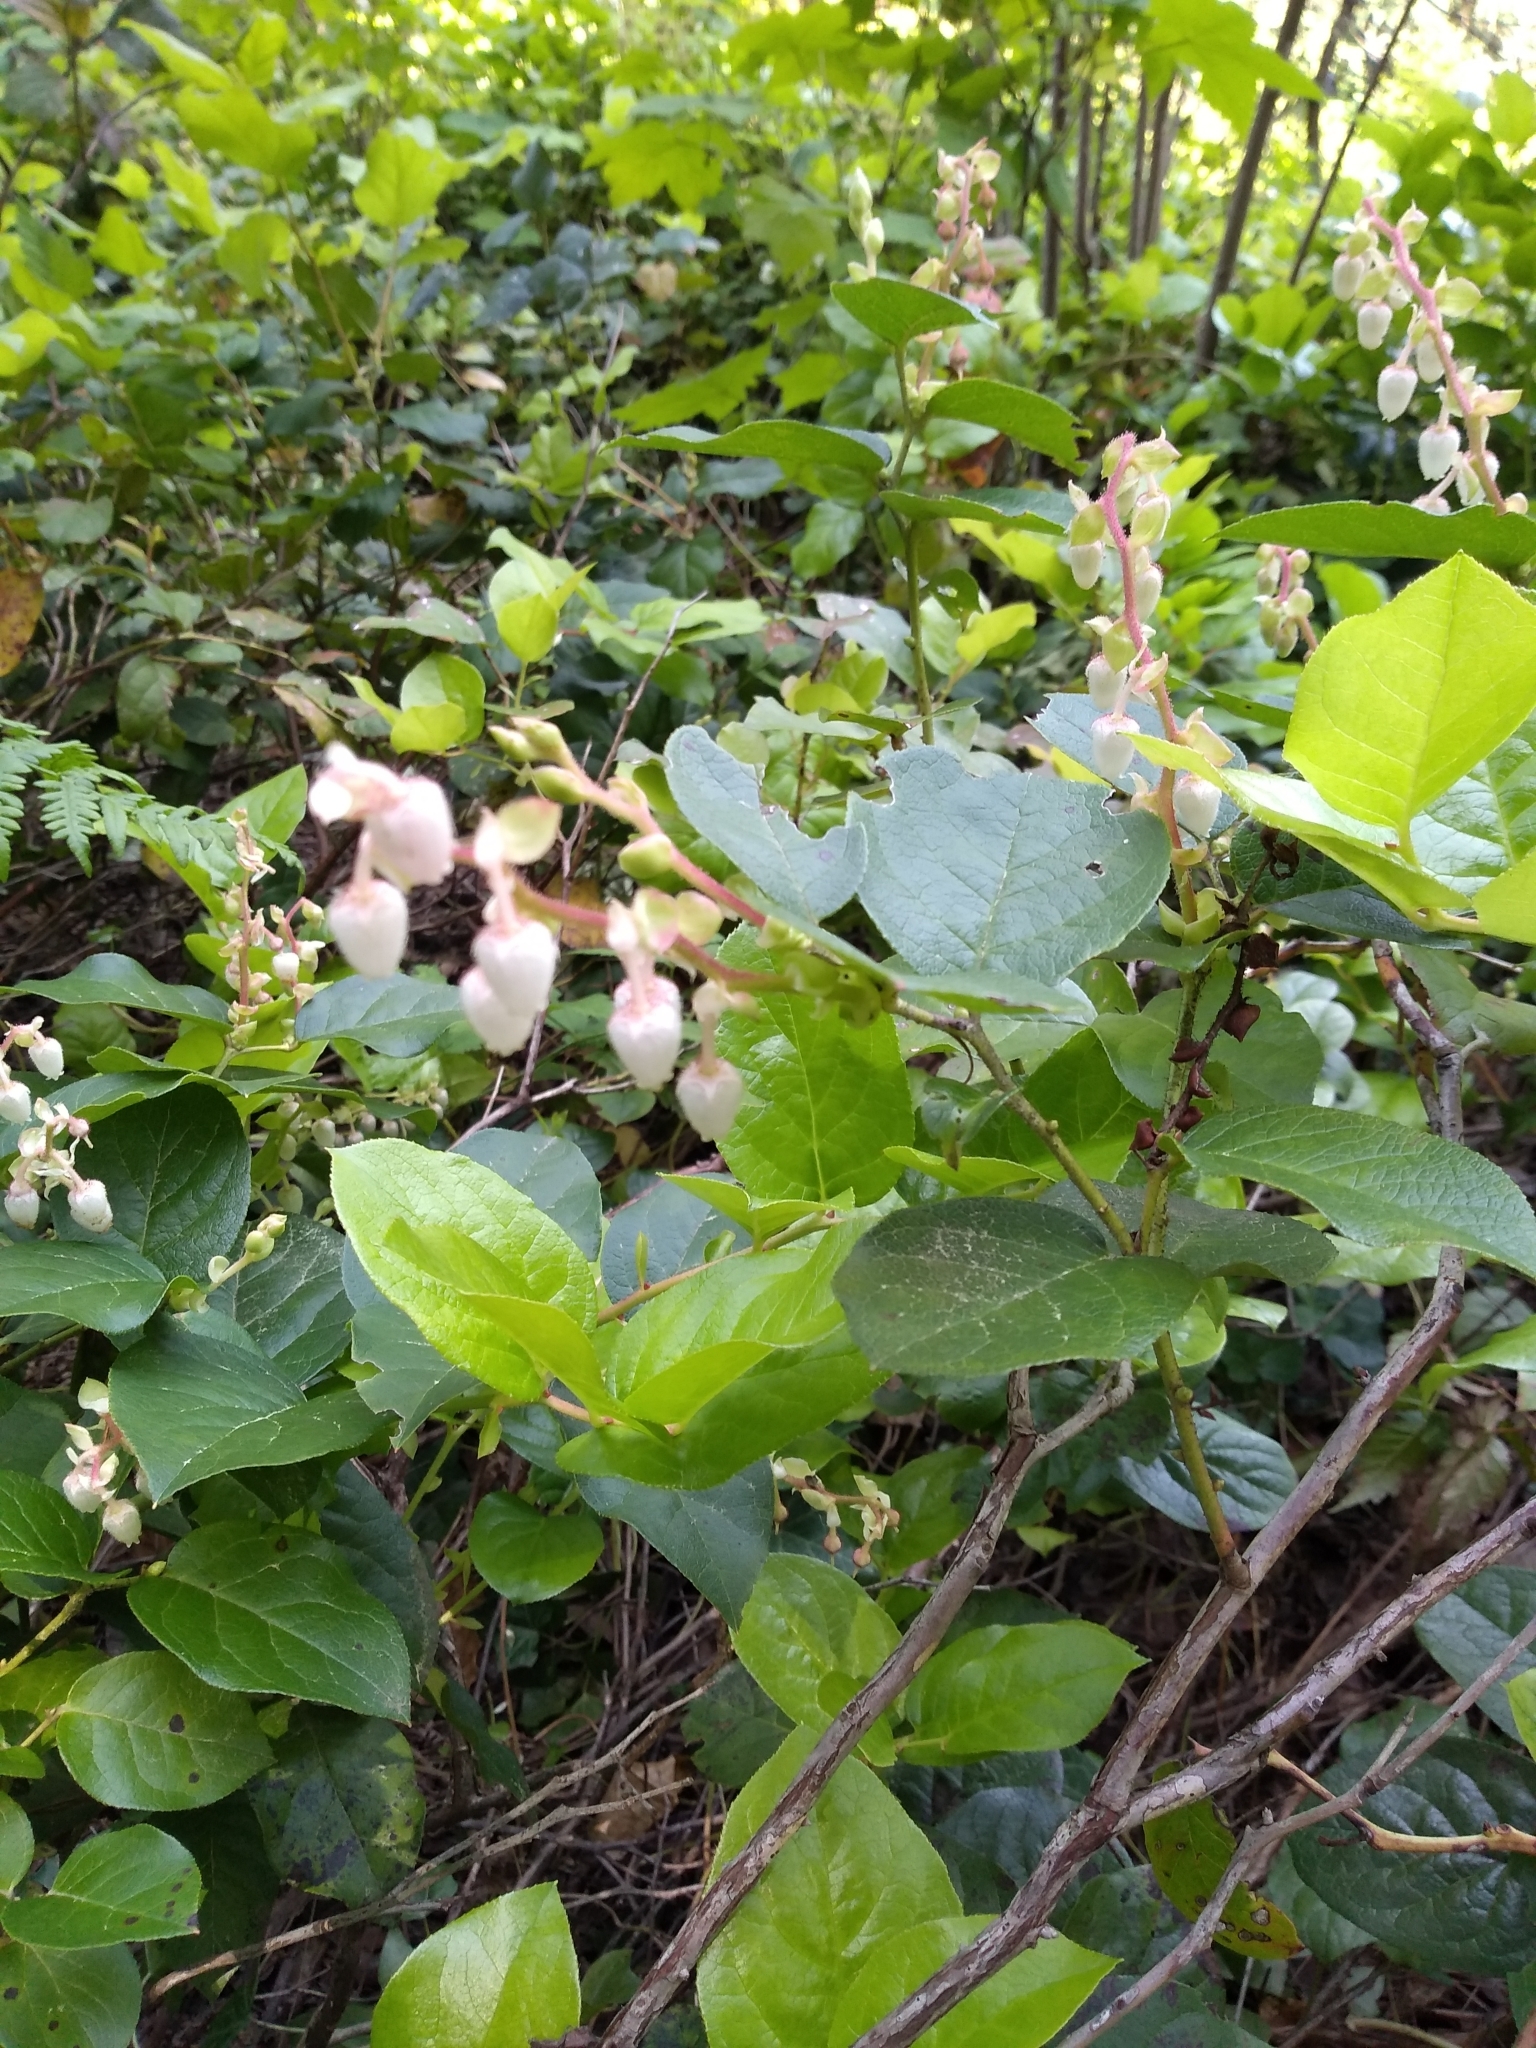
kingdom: Plantae
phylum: Tracheophyta
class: Magnoliopsida
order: Ericales
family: Ericaceae
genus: Gaultheria
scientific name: Gaultheria shallon
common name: Shallon
